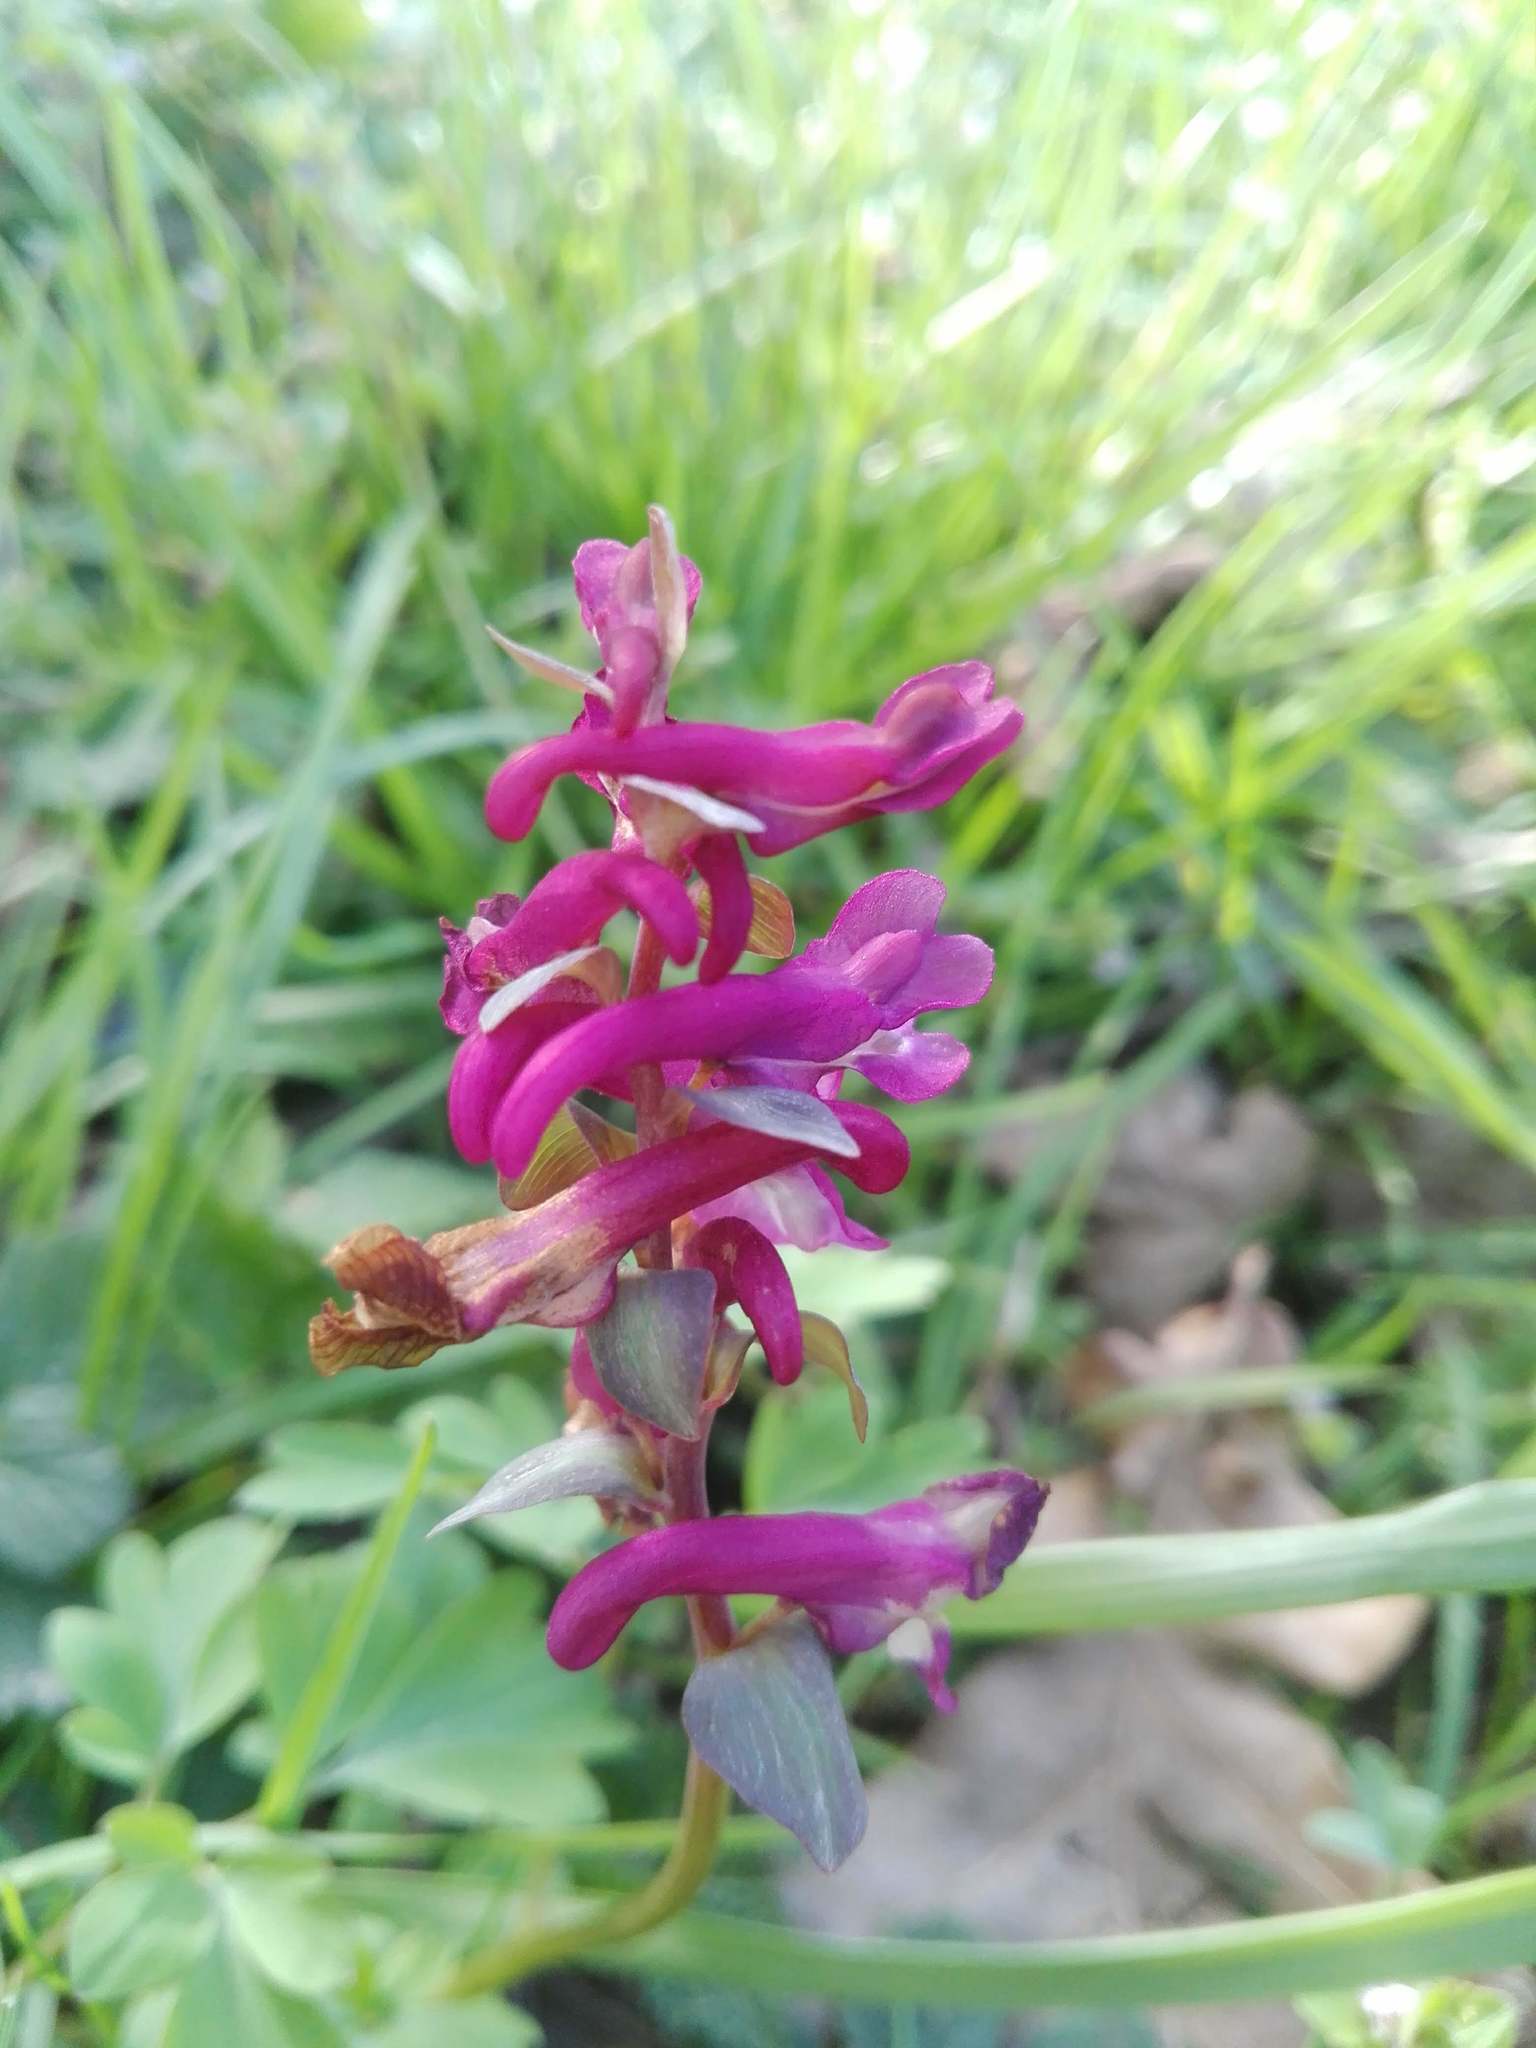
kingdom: Plantae
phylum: Tracheophyta
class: Magnoliopsida
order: Ranunculales
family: Papaveraceae
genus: Corydalis
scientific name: Corydalis cava
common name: Hollowroot
